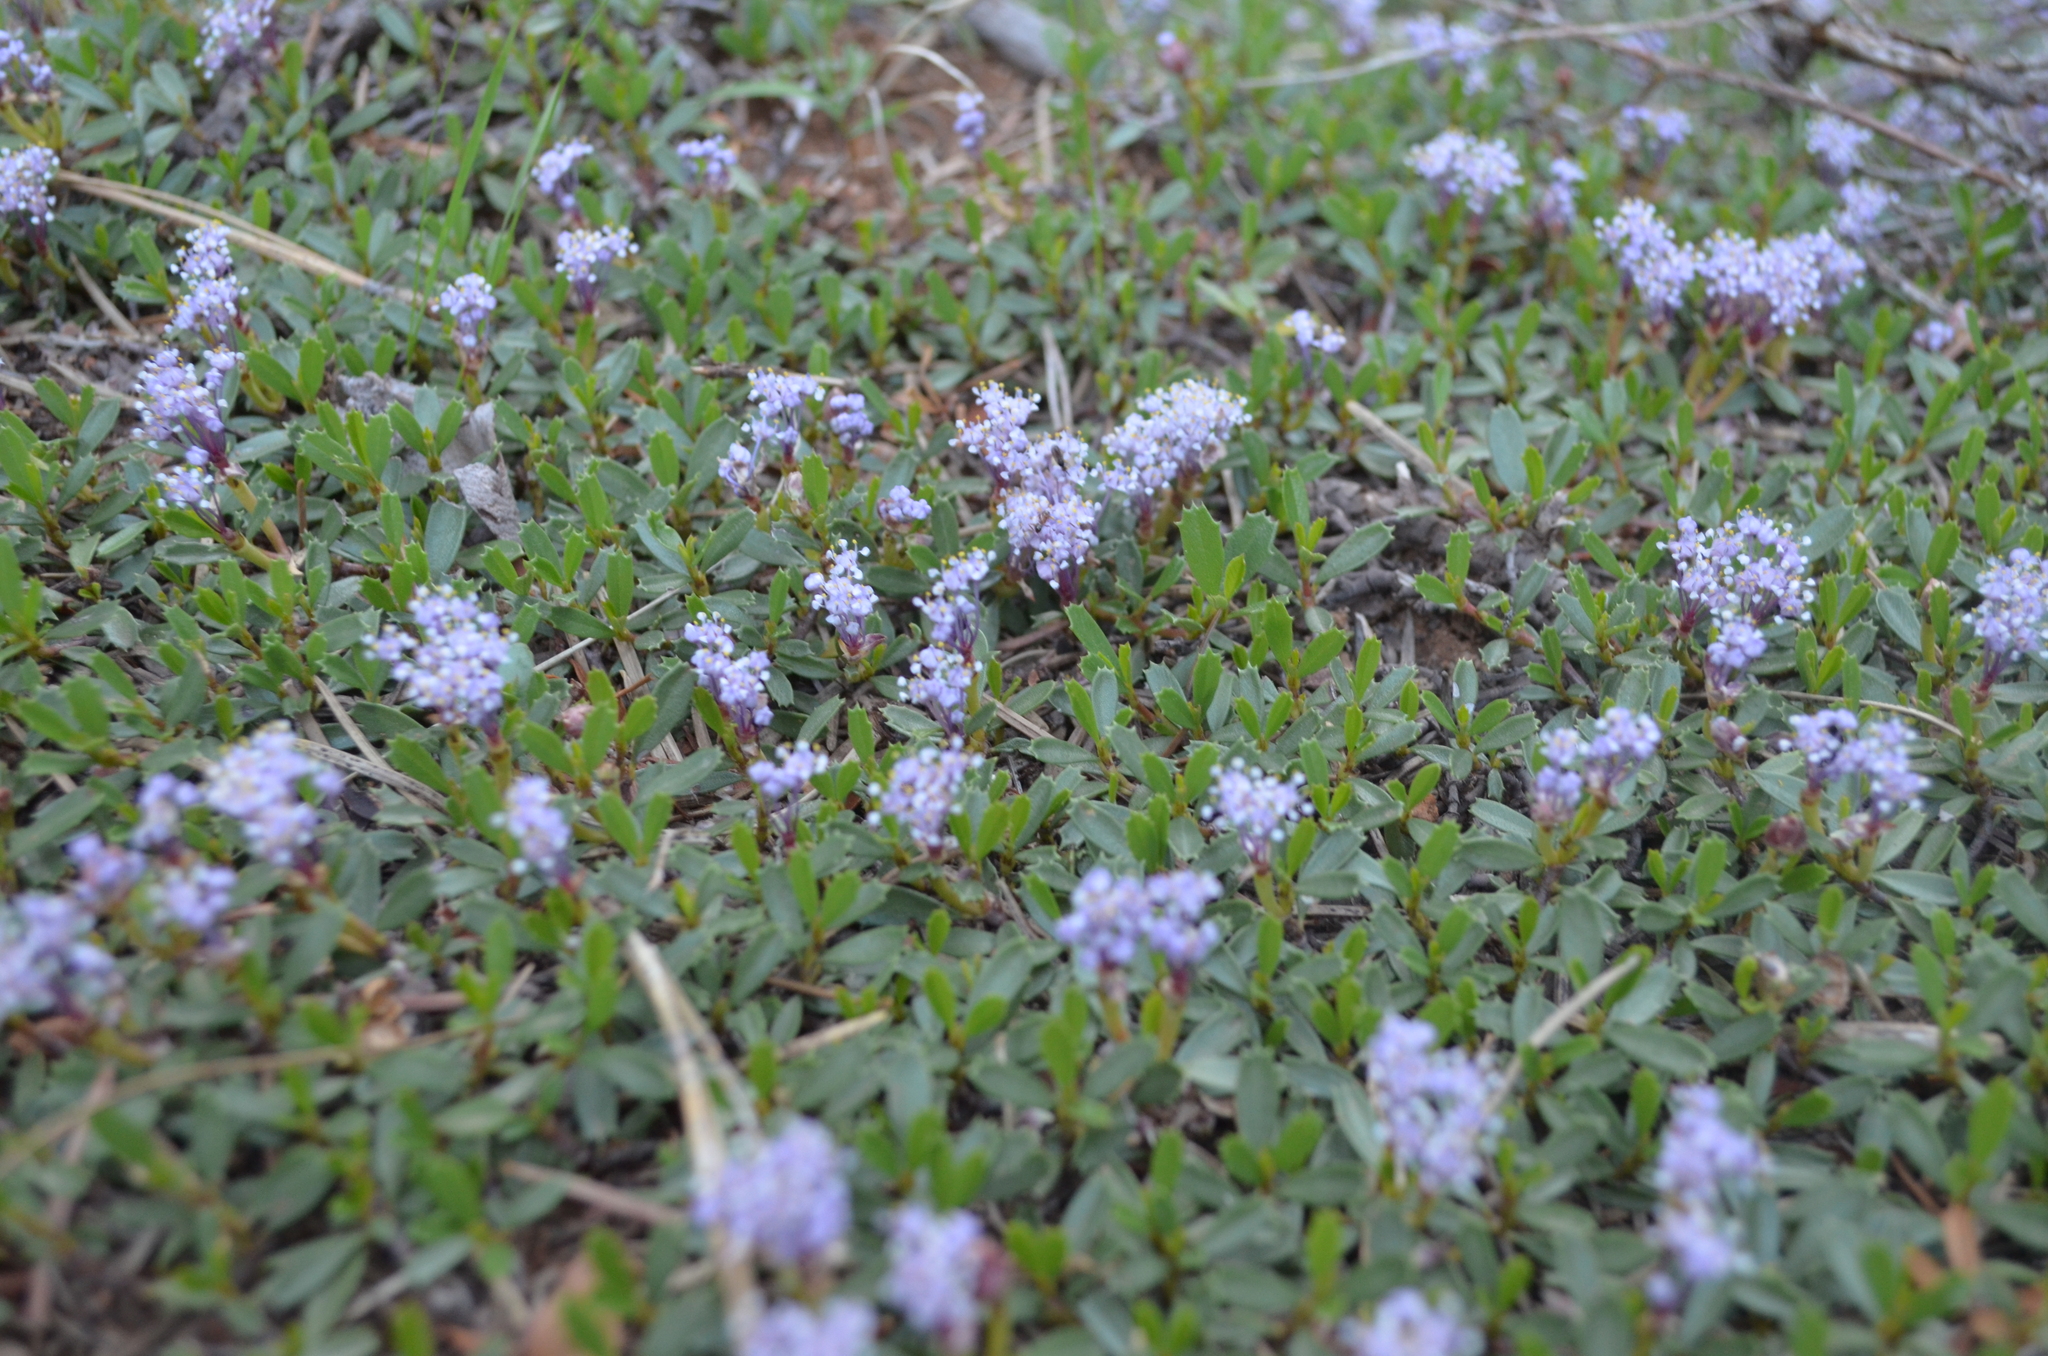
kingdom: Plantae
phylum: Tracheophyta
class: Magnoliopsida
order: Rosales
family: Rhamnaceae
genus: Ceanothus
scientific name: Ceanothus prostratus
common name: Mahala-mat
